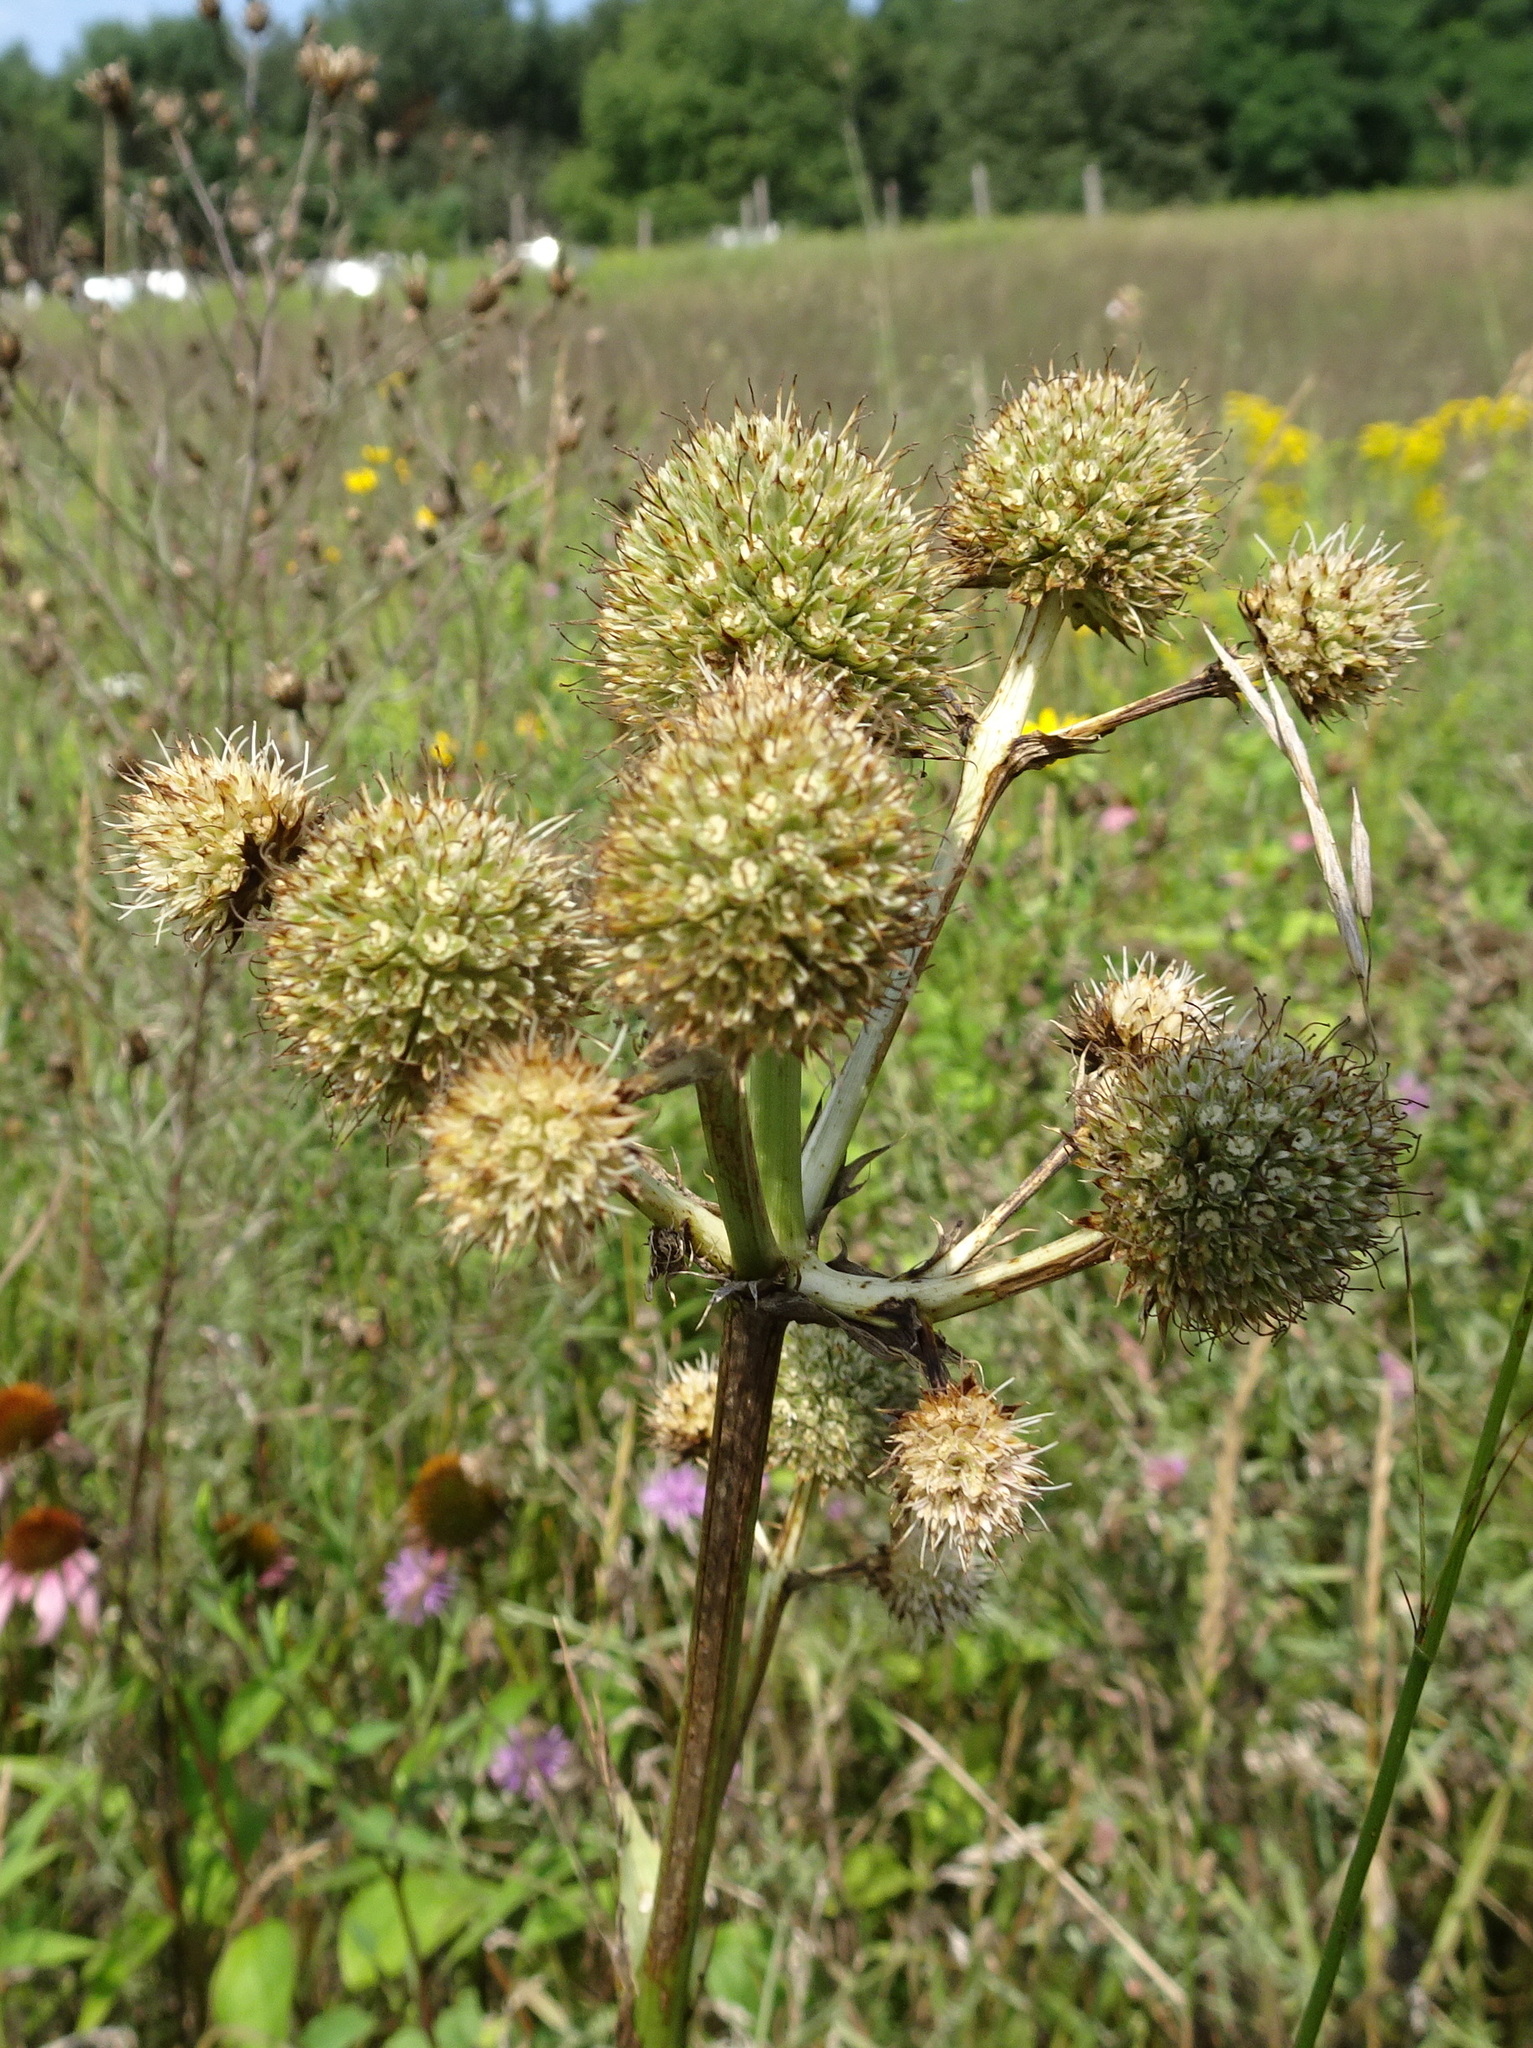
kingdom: Plantae
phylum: Tracheophyta
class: Magnoliopsida
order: Apiales
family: Apiaceae
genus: Eryngium
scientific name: Eryngium yuccifolium
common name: Button eryngo
